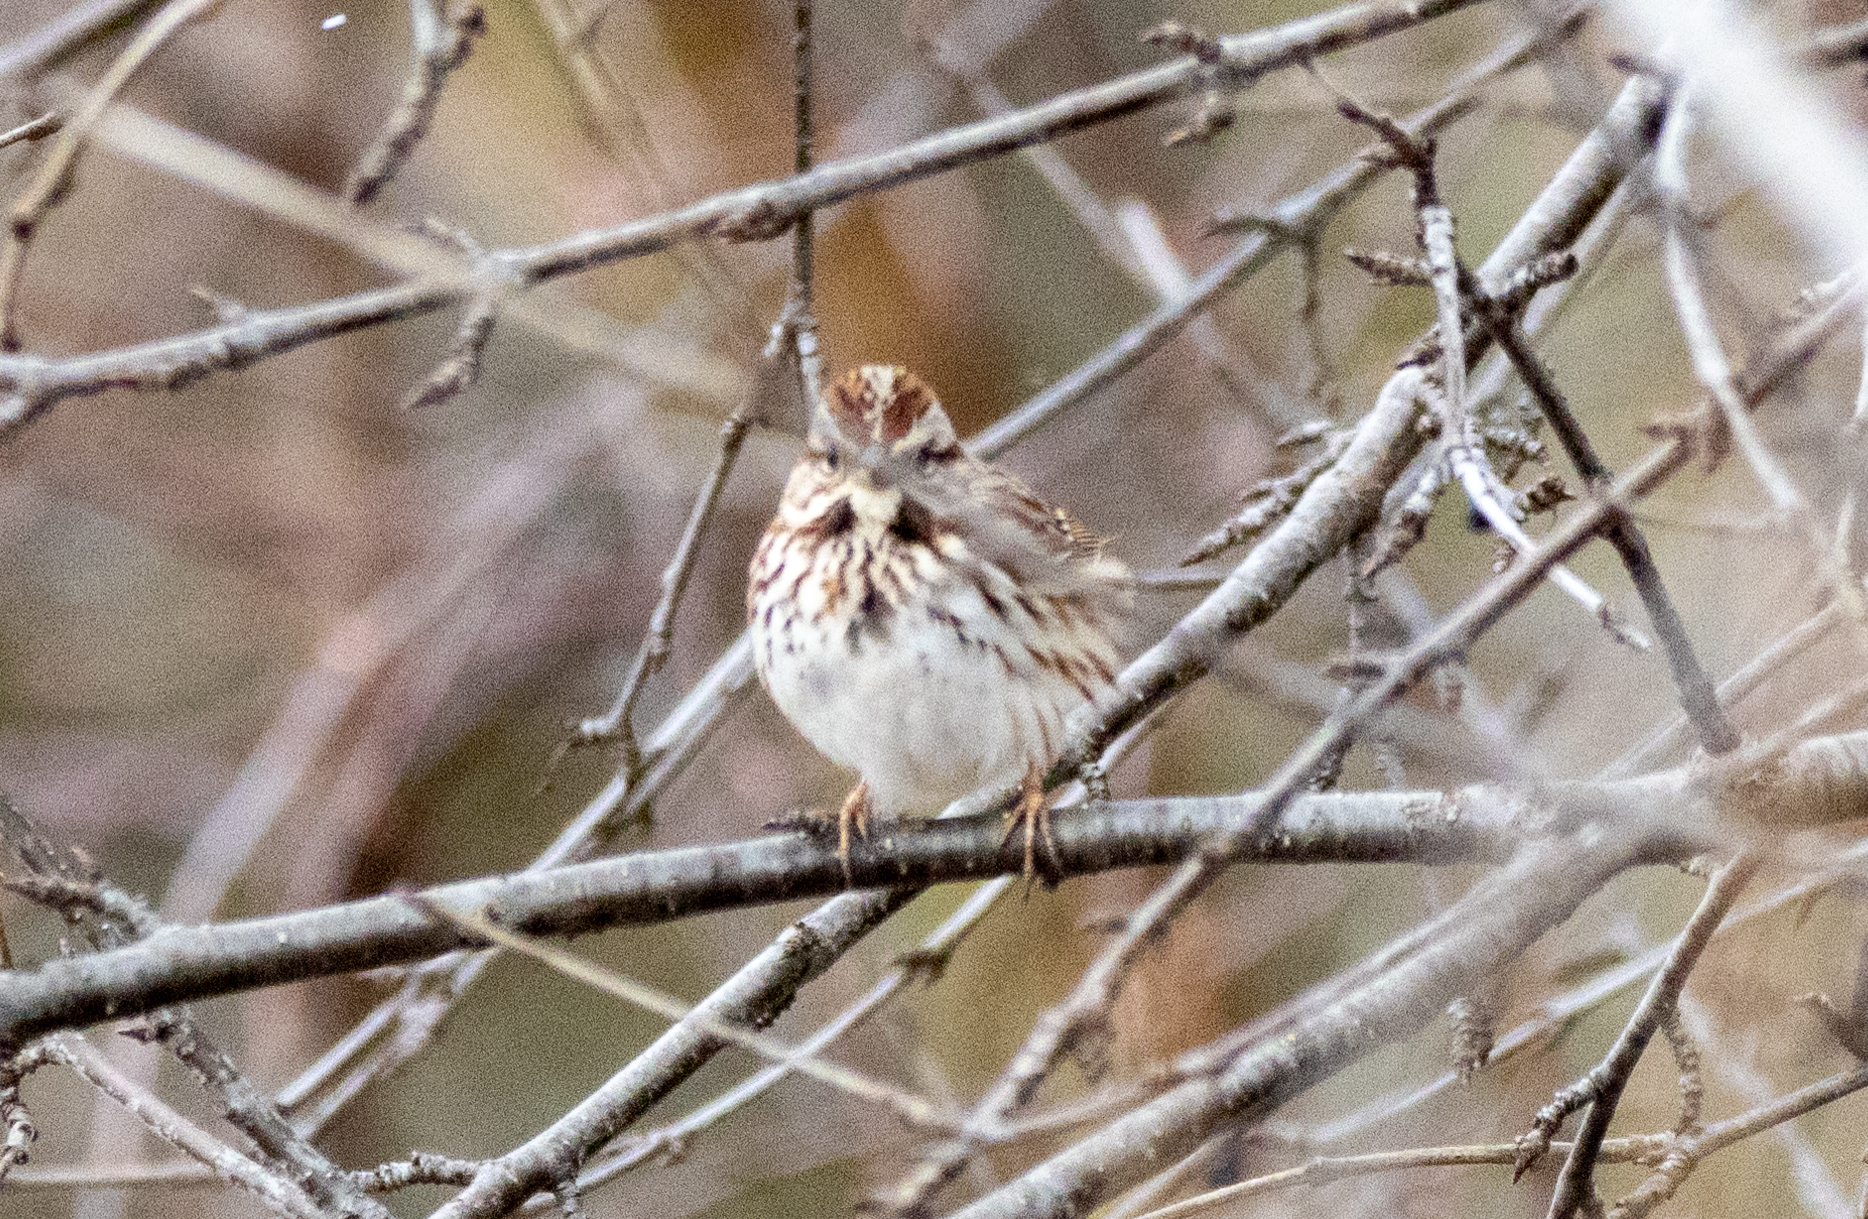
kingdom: Animalia
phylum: Chordata
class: Aves
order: Passeriformes
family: Passerellidae
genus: Melospiza
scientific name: Melospiza melodia
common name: Song sparrow
